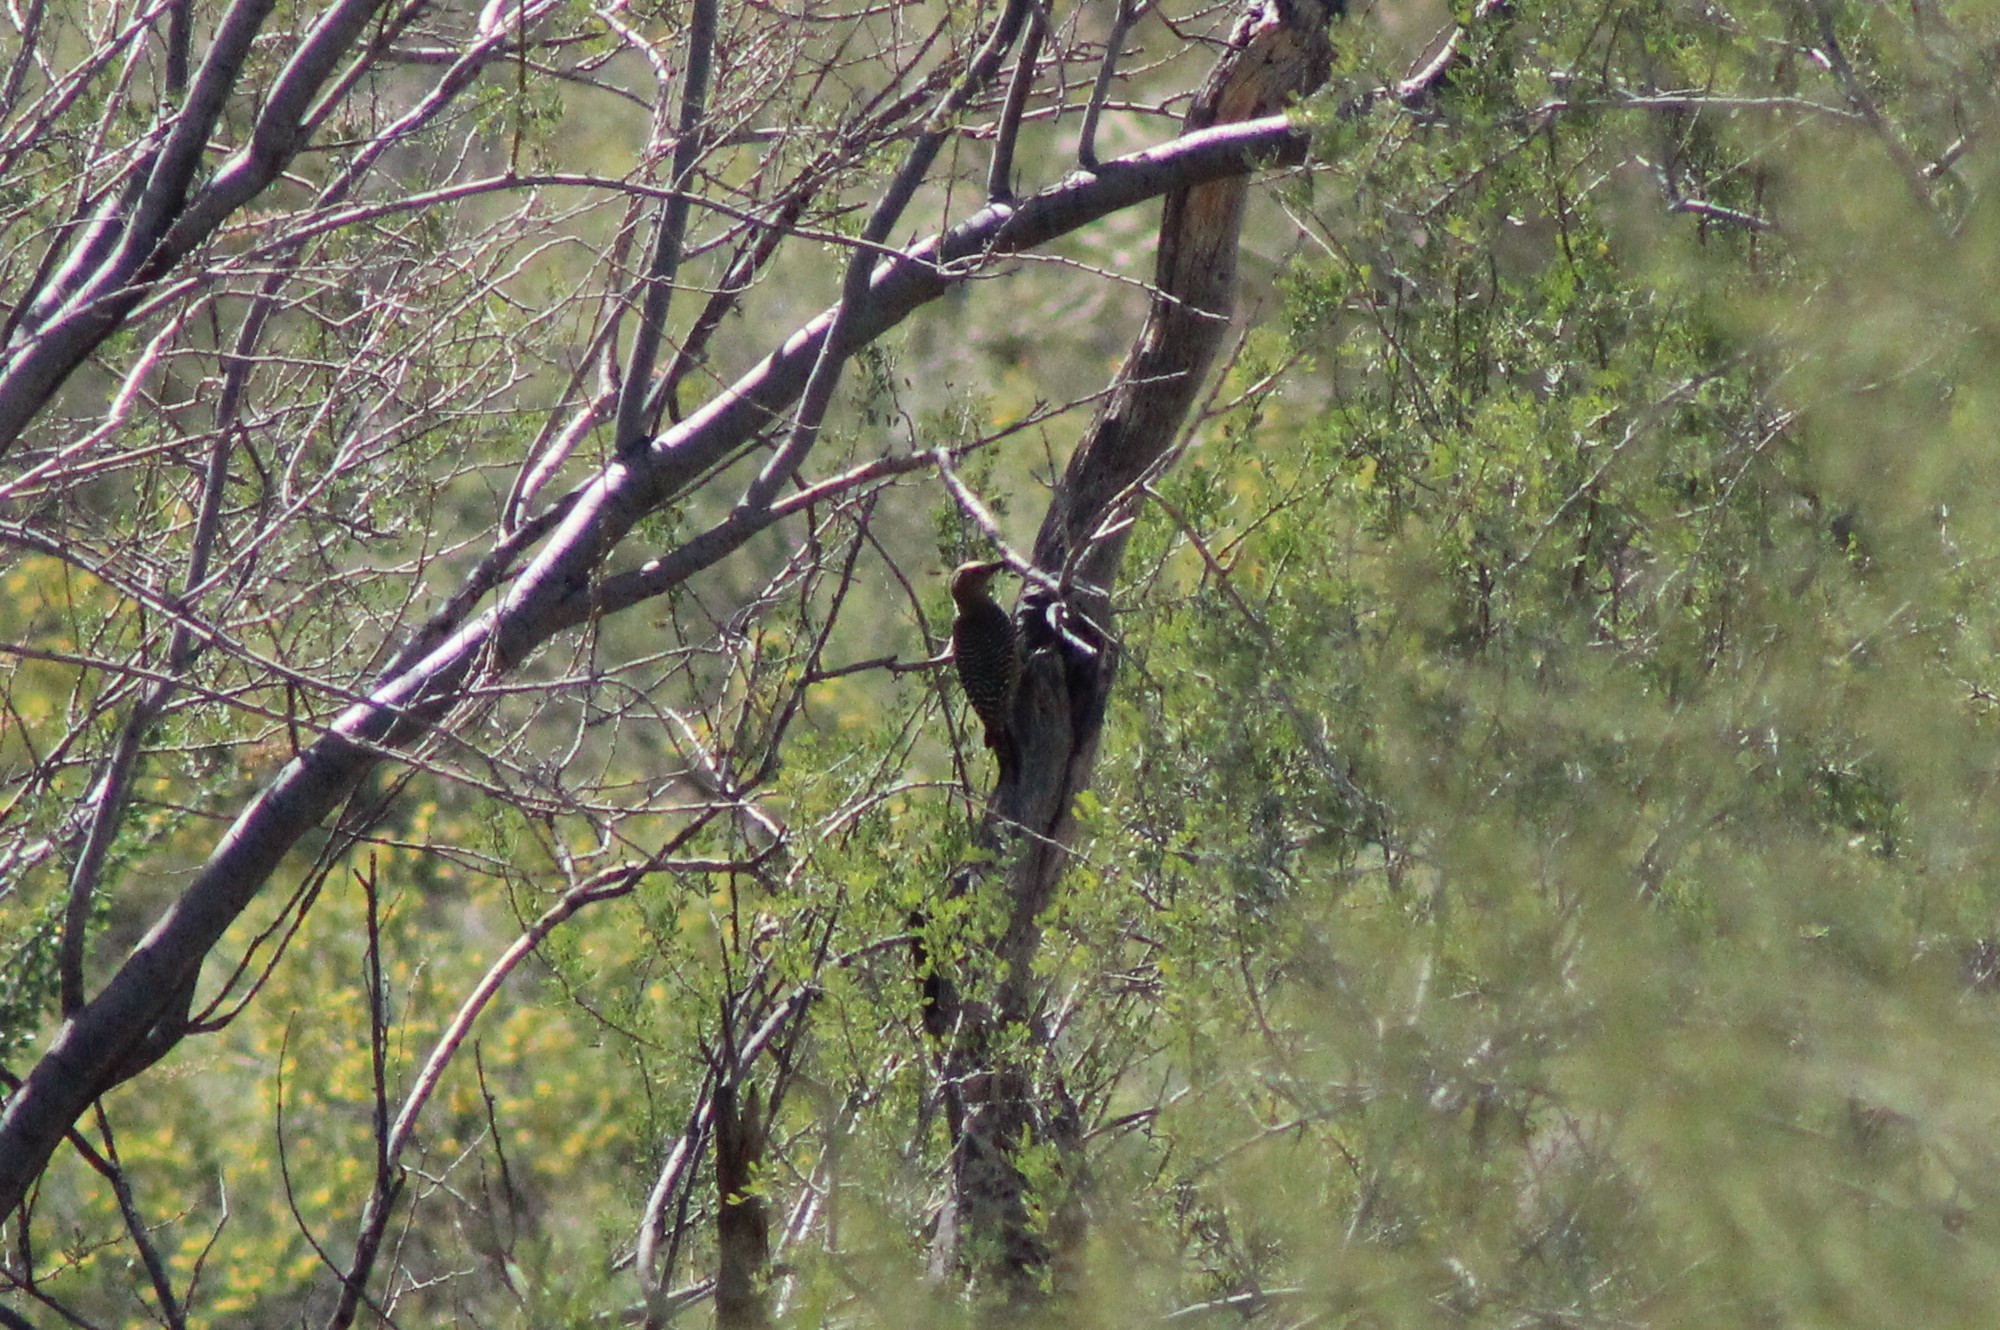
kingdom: Animalia
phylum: Chordata
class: Aves
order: Piciformes
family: Picidae
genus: Melanerpes
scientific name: Melanerpes uropygialis
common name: Gila woodpecker
